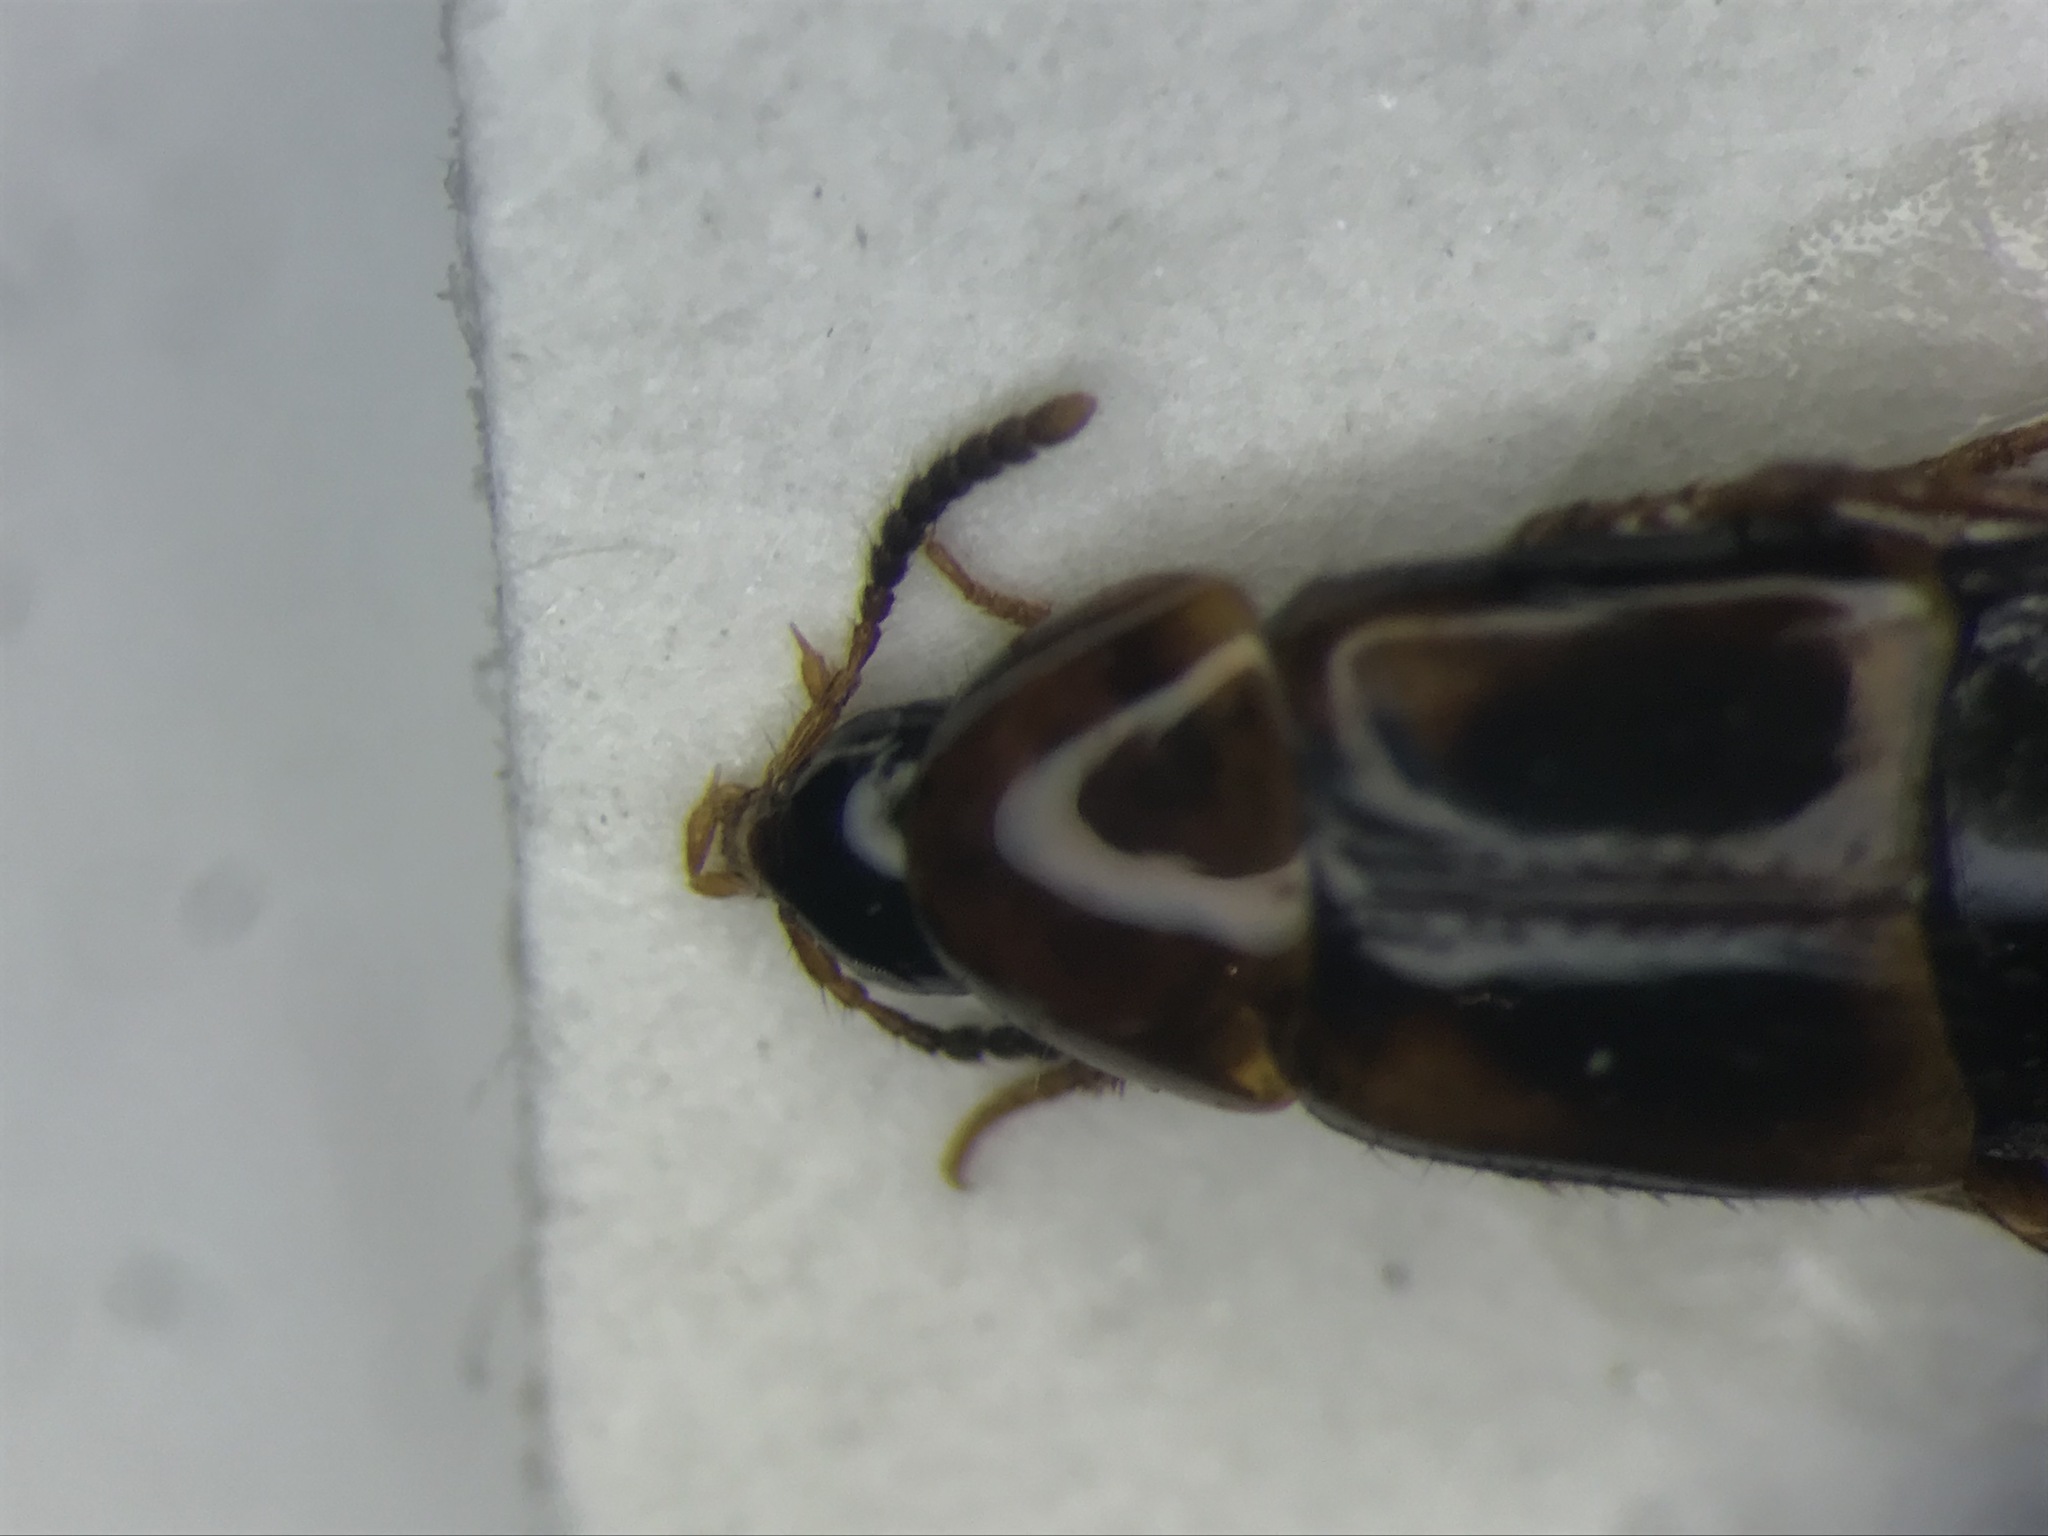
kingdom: Animalia
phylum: Arthropoda
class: Insecta
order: Coleoptera
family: Staphylinidae
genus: Mycetoporus
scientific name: Mycetoporus americanus
